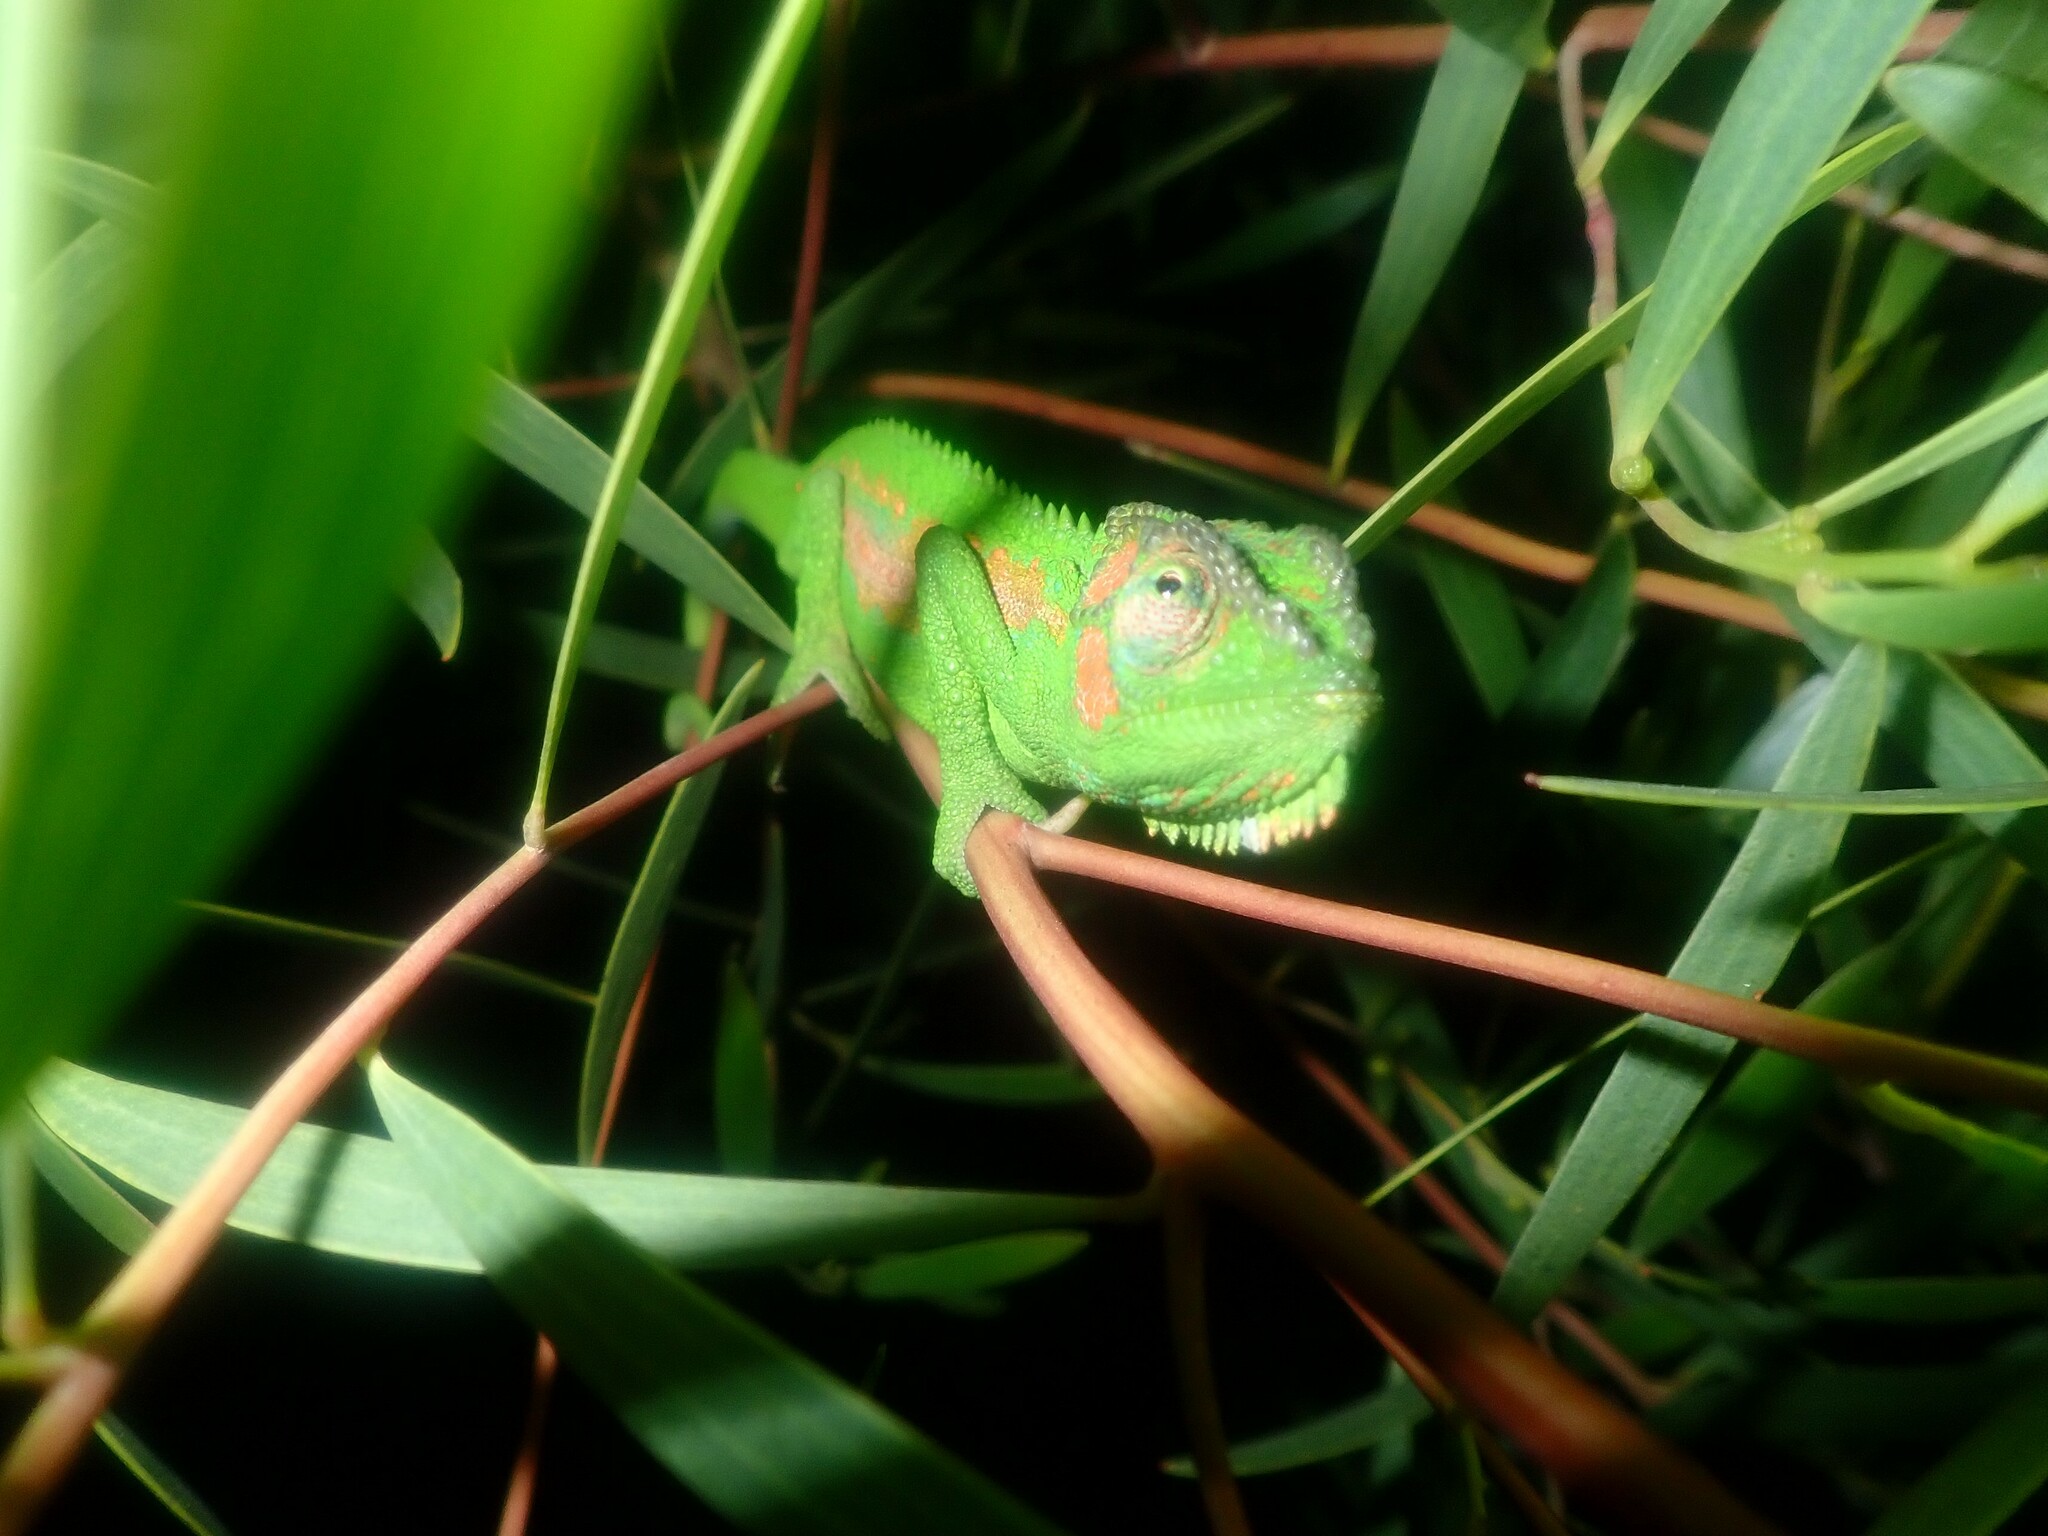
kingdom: Animalia
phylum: Chordata
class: Squamata
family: Chamaeleonidae
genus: Bradypodion
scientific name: Bradypodion pumilum
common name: Cape dwarf chameleon
